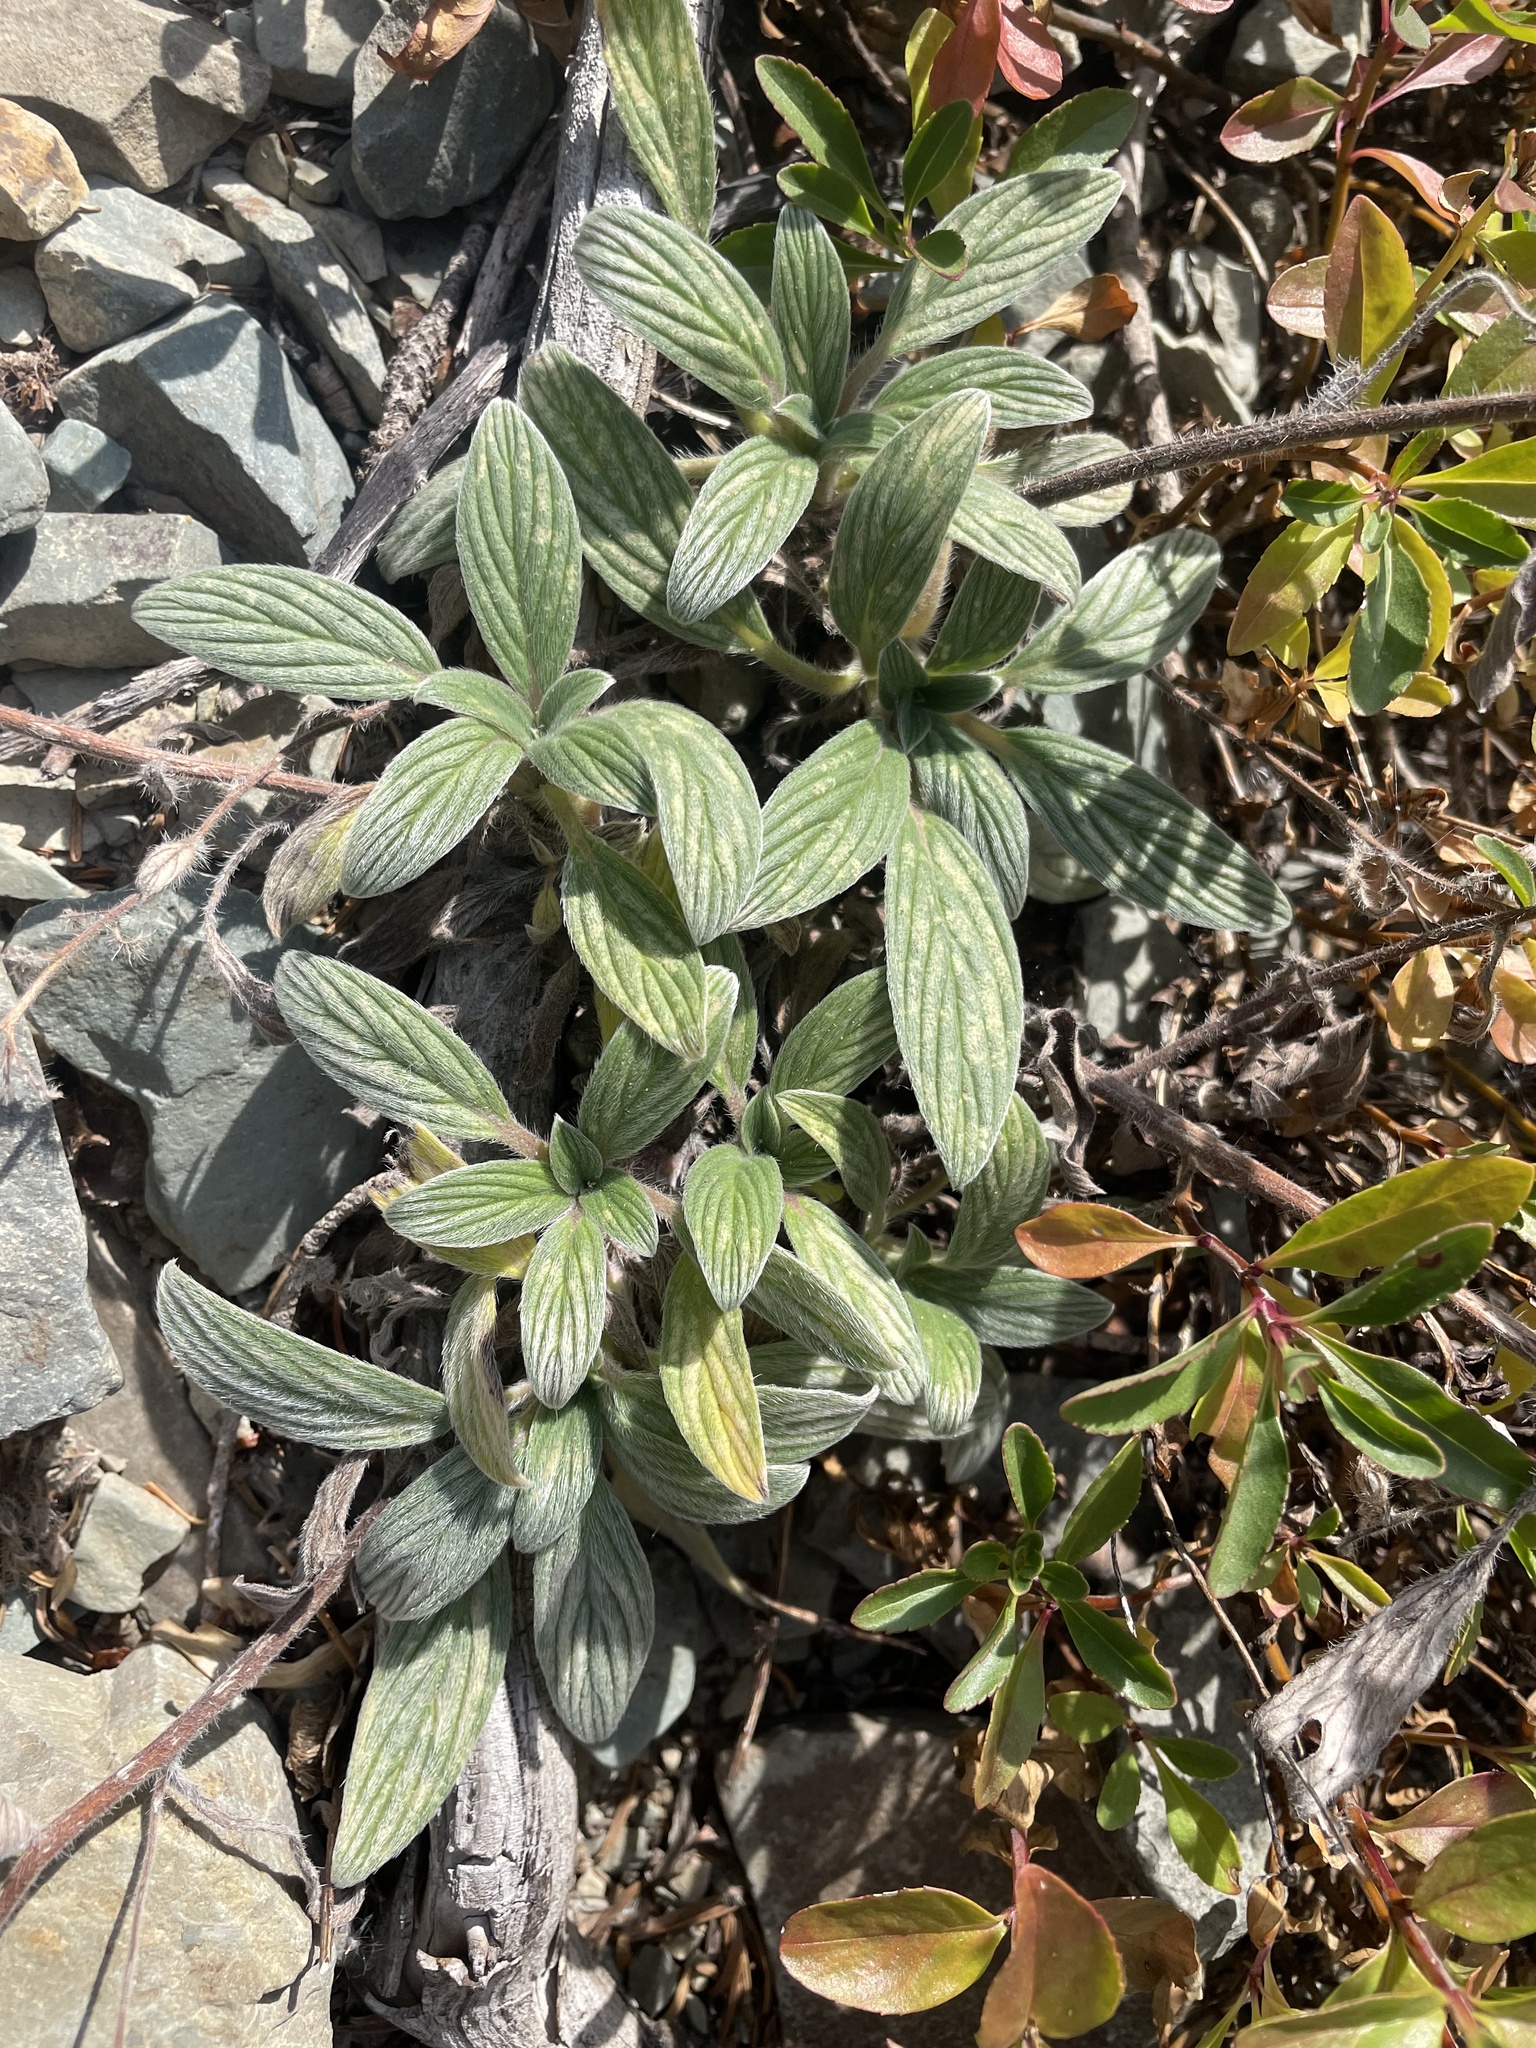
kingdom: Plantae
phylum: Tracheophyta
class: Magnoliopsida
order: Boraginales
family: Hydrophyllaceae
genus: Phacelia
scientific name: Phacelia hastata
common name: Silver-leaved phacelia
